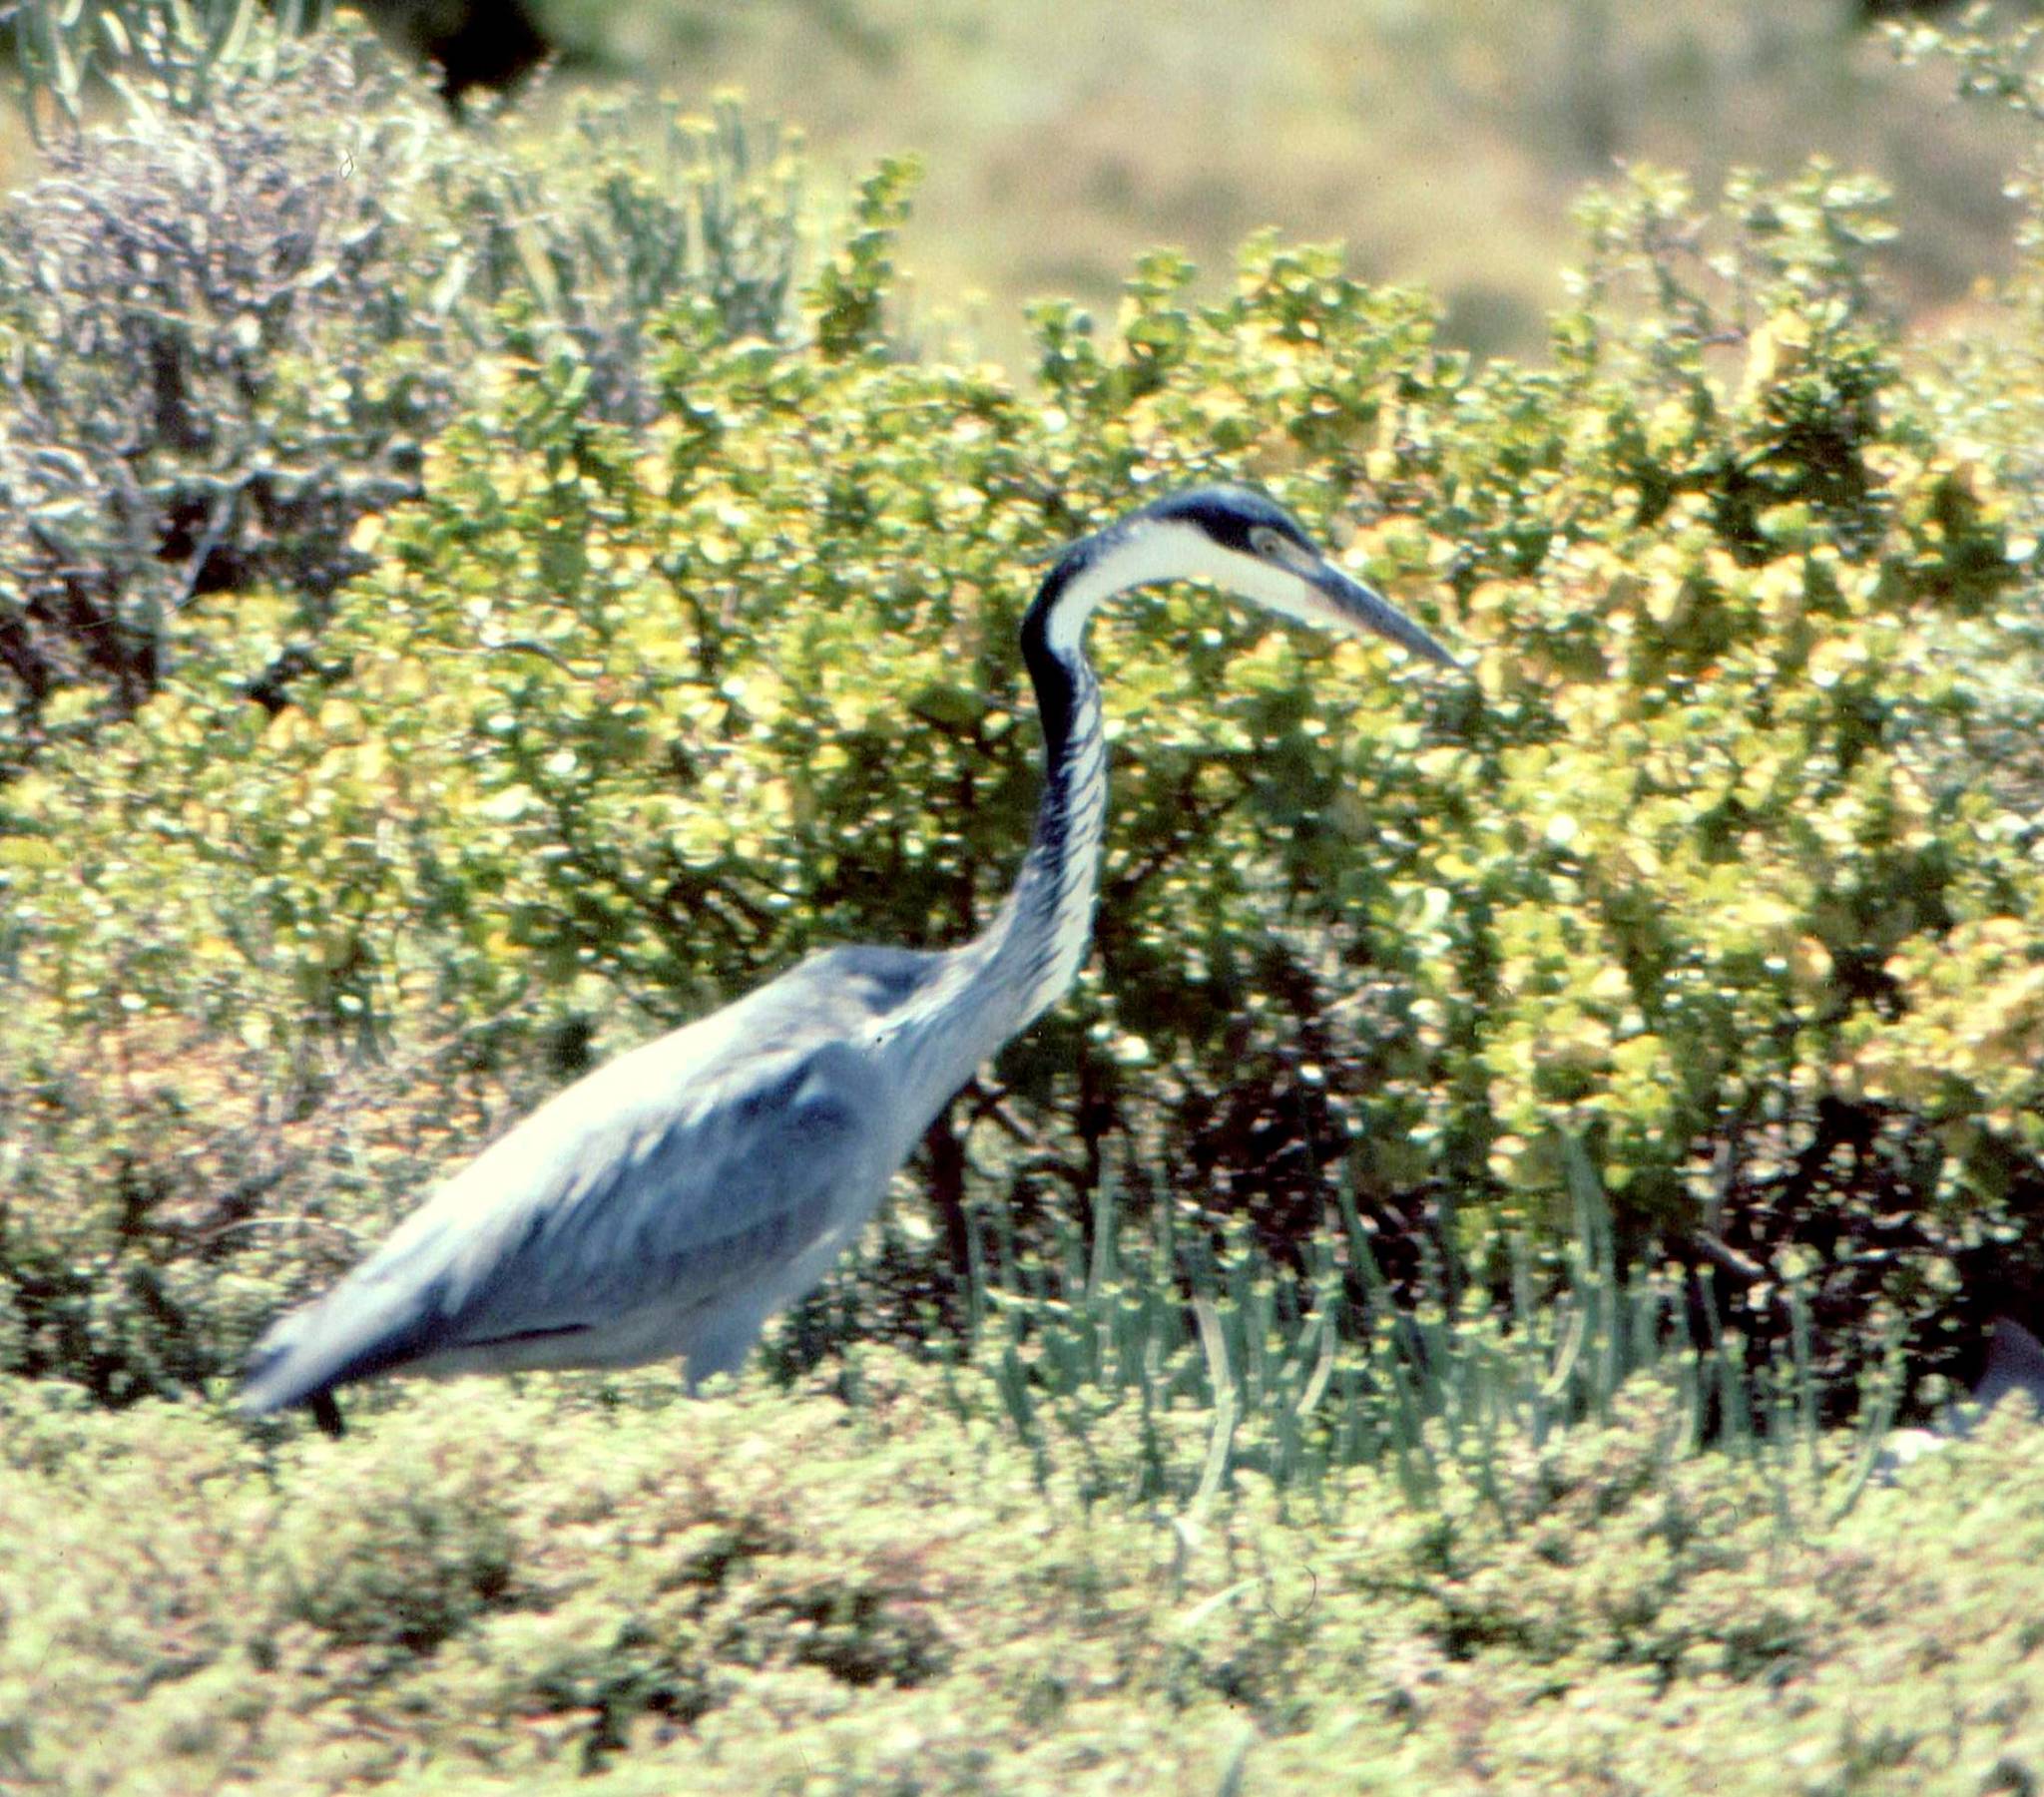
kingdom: Animalia
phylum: Chordata
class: Aves
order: Pelecaniformes
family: Ardeidae
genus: Ardea
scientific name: Ardea melanocephala
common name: Black-headed heron
